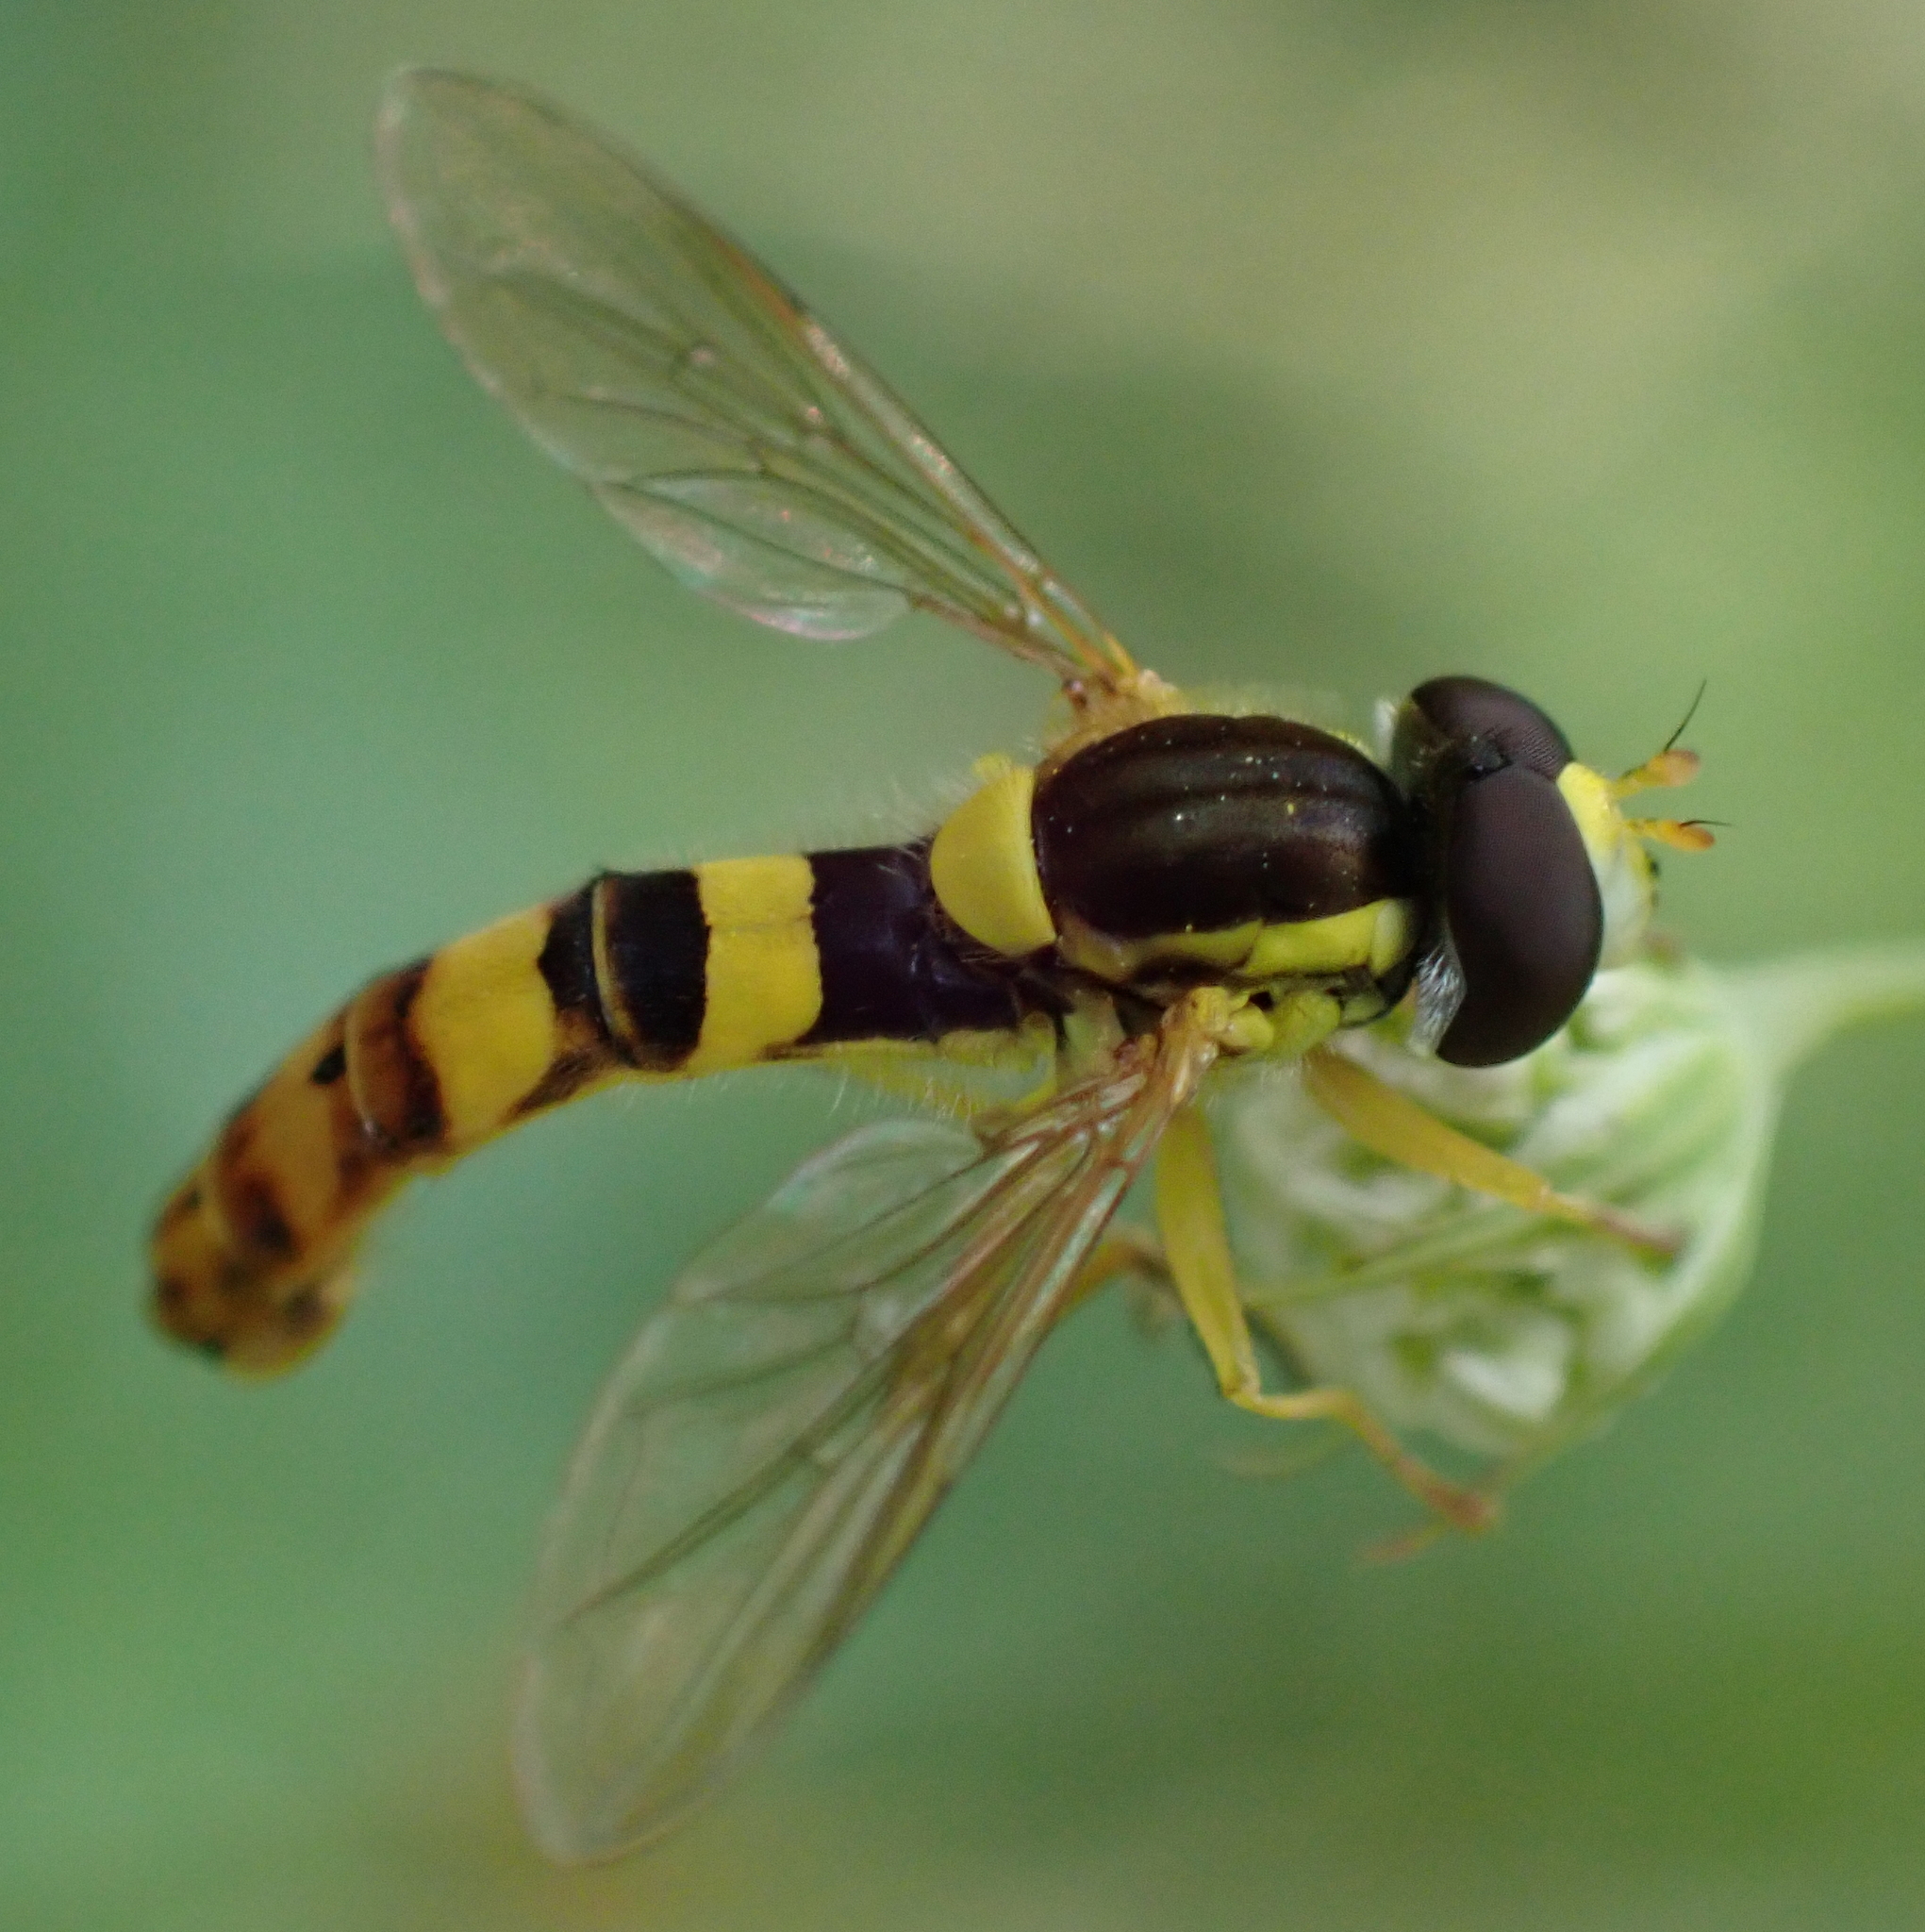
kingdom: Animalia
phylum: Arthropoda
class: Insecta
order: Diptera
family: Syrphidae
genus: Sphaerophoria
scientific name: Sphaerophoria scripta
